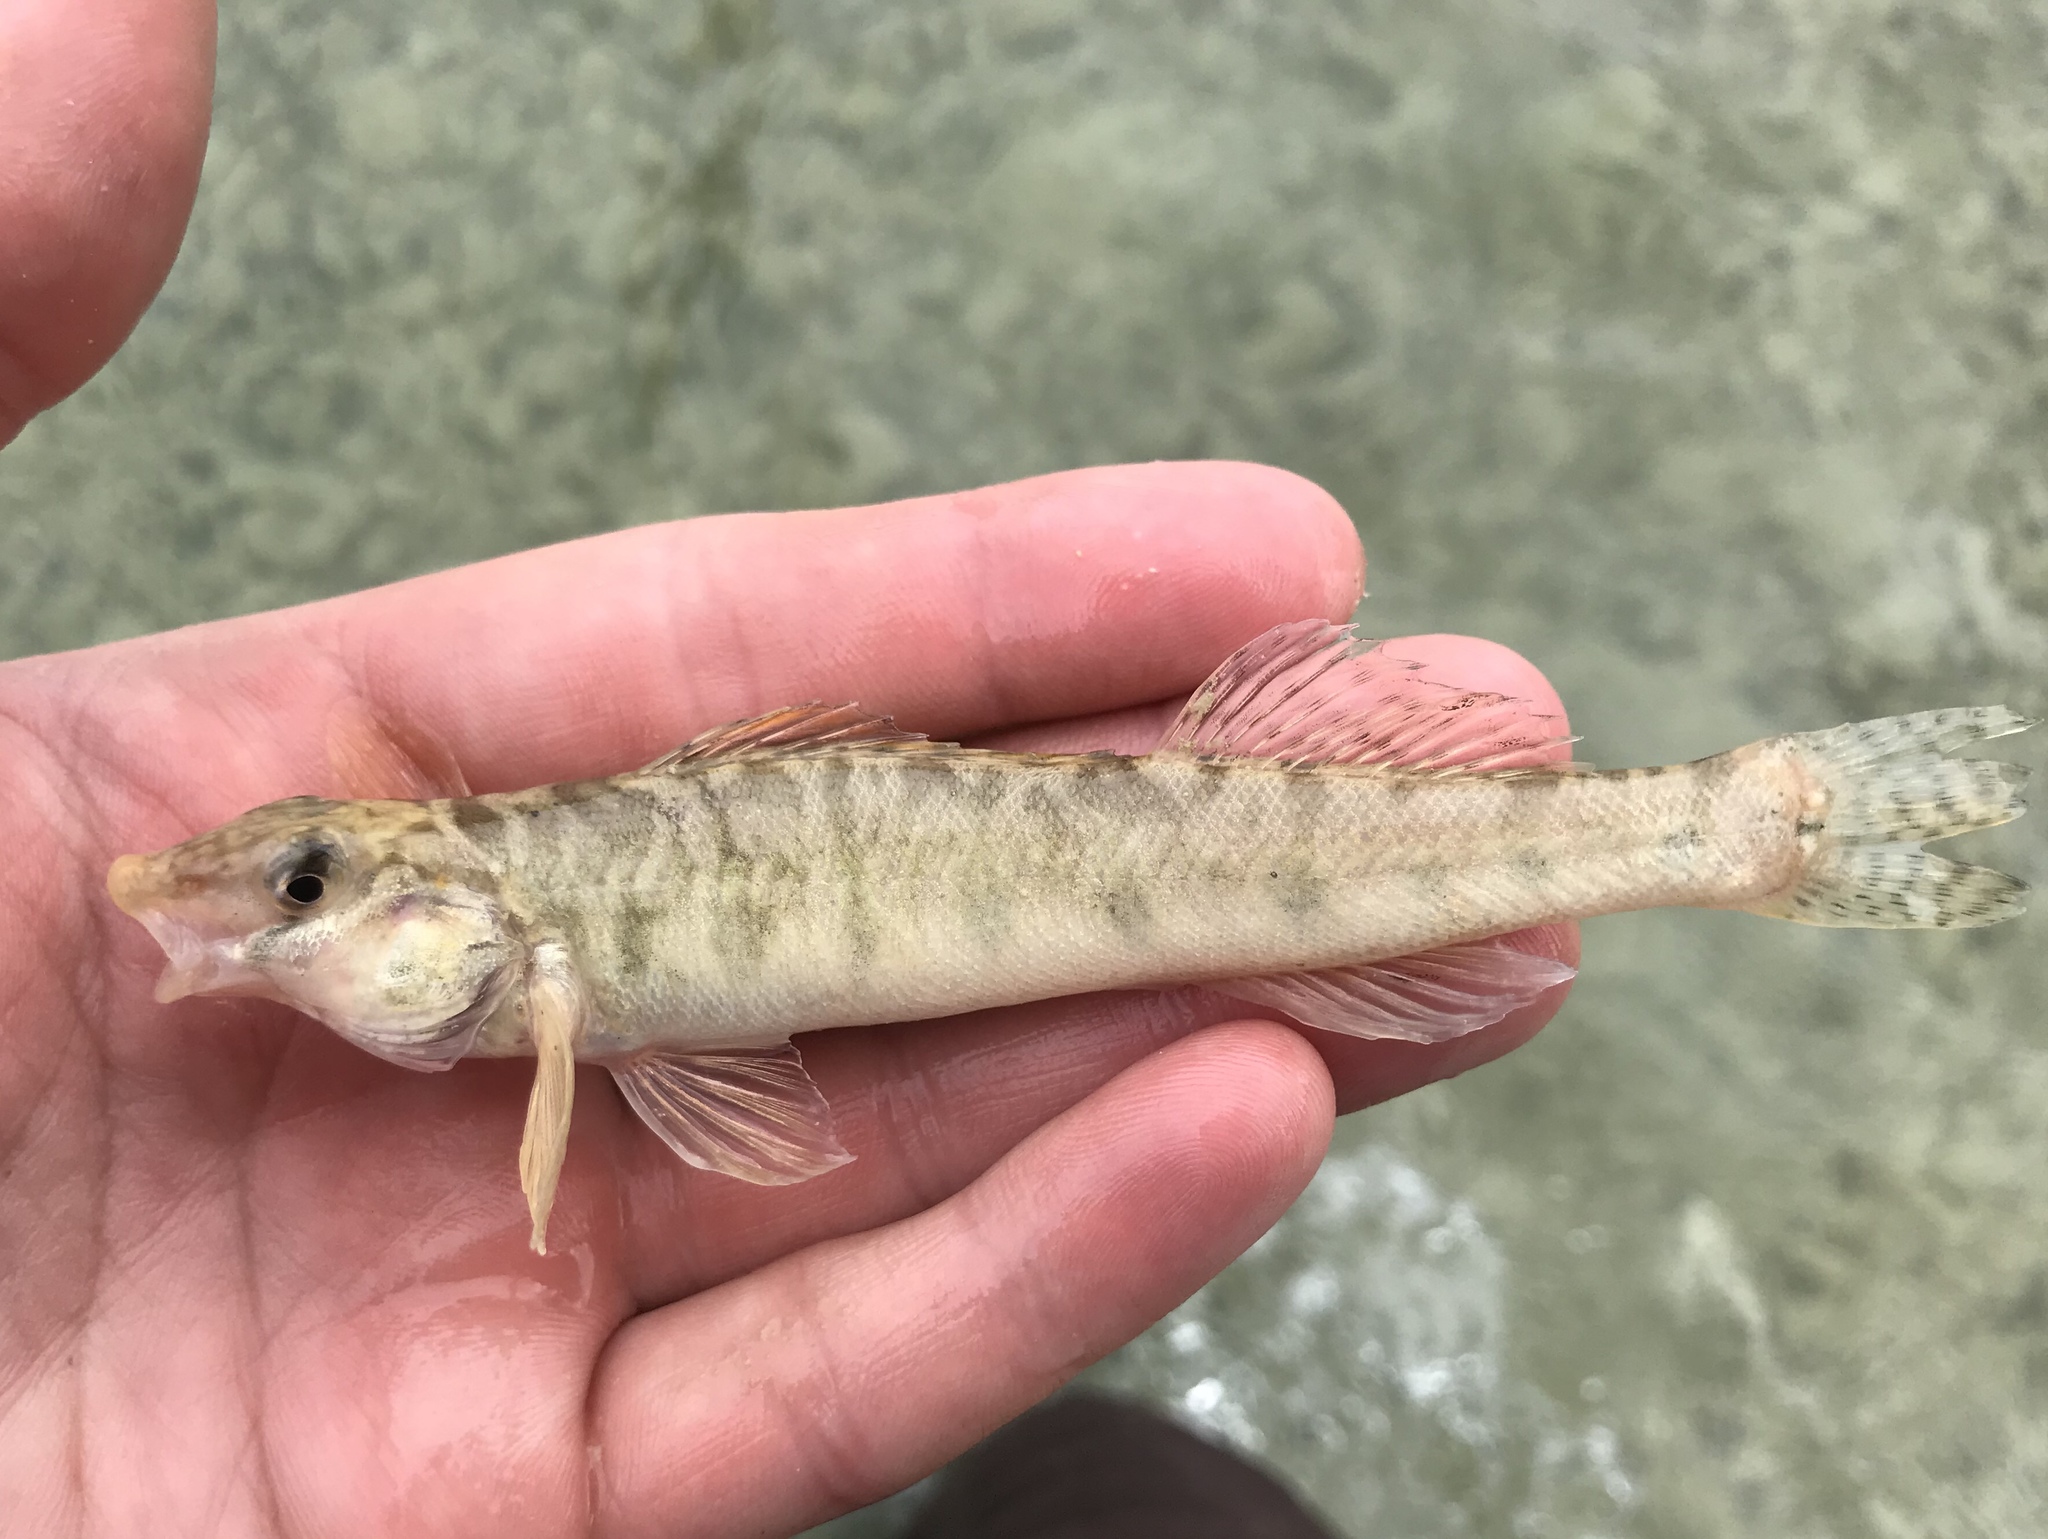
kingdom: Animalia
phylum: Chordata
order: Perciformes
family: Percidae
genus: Percina
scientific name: Percina carbonaria
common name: Texas logperch
